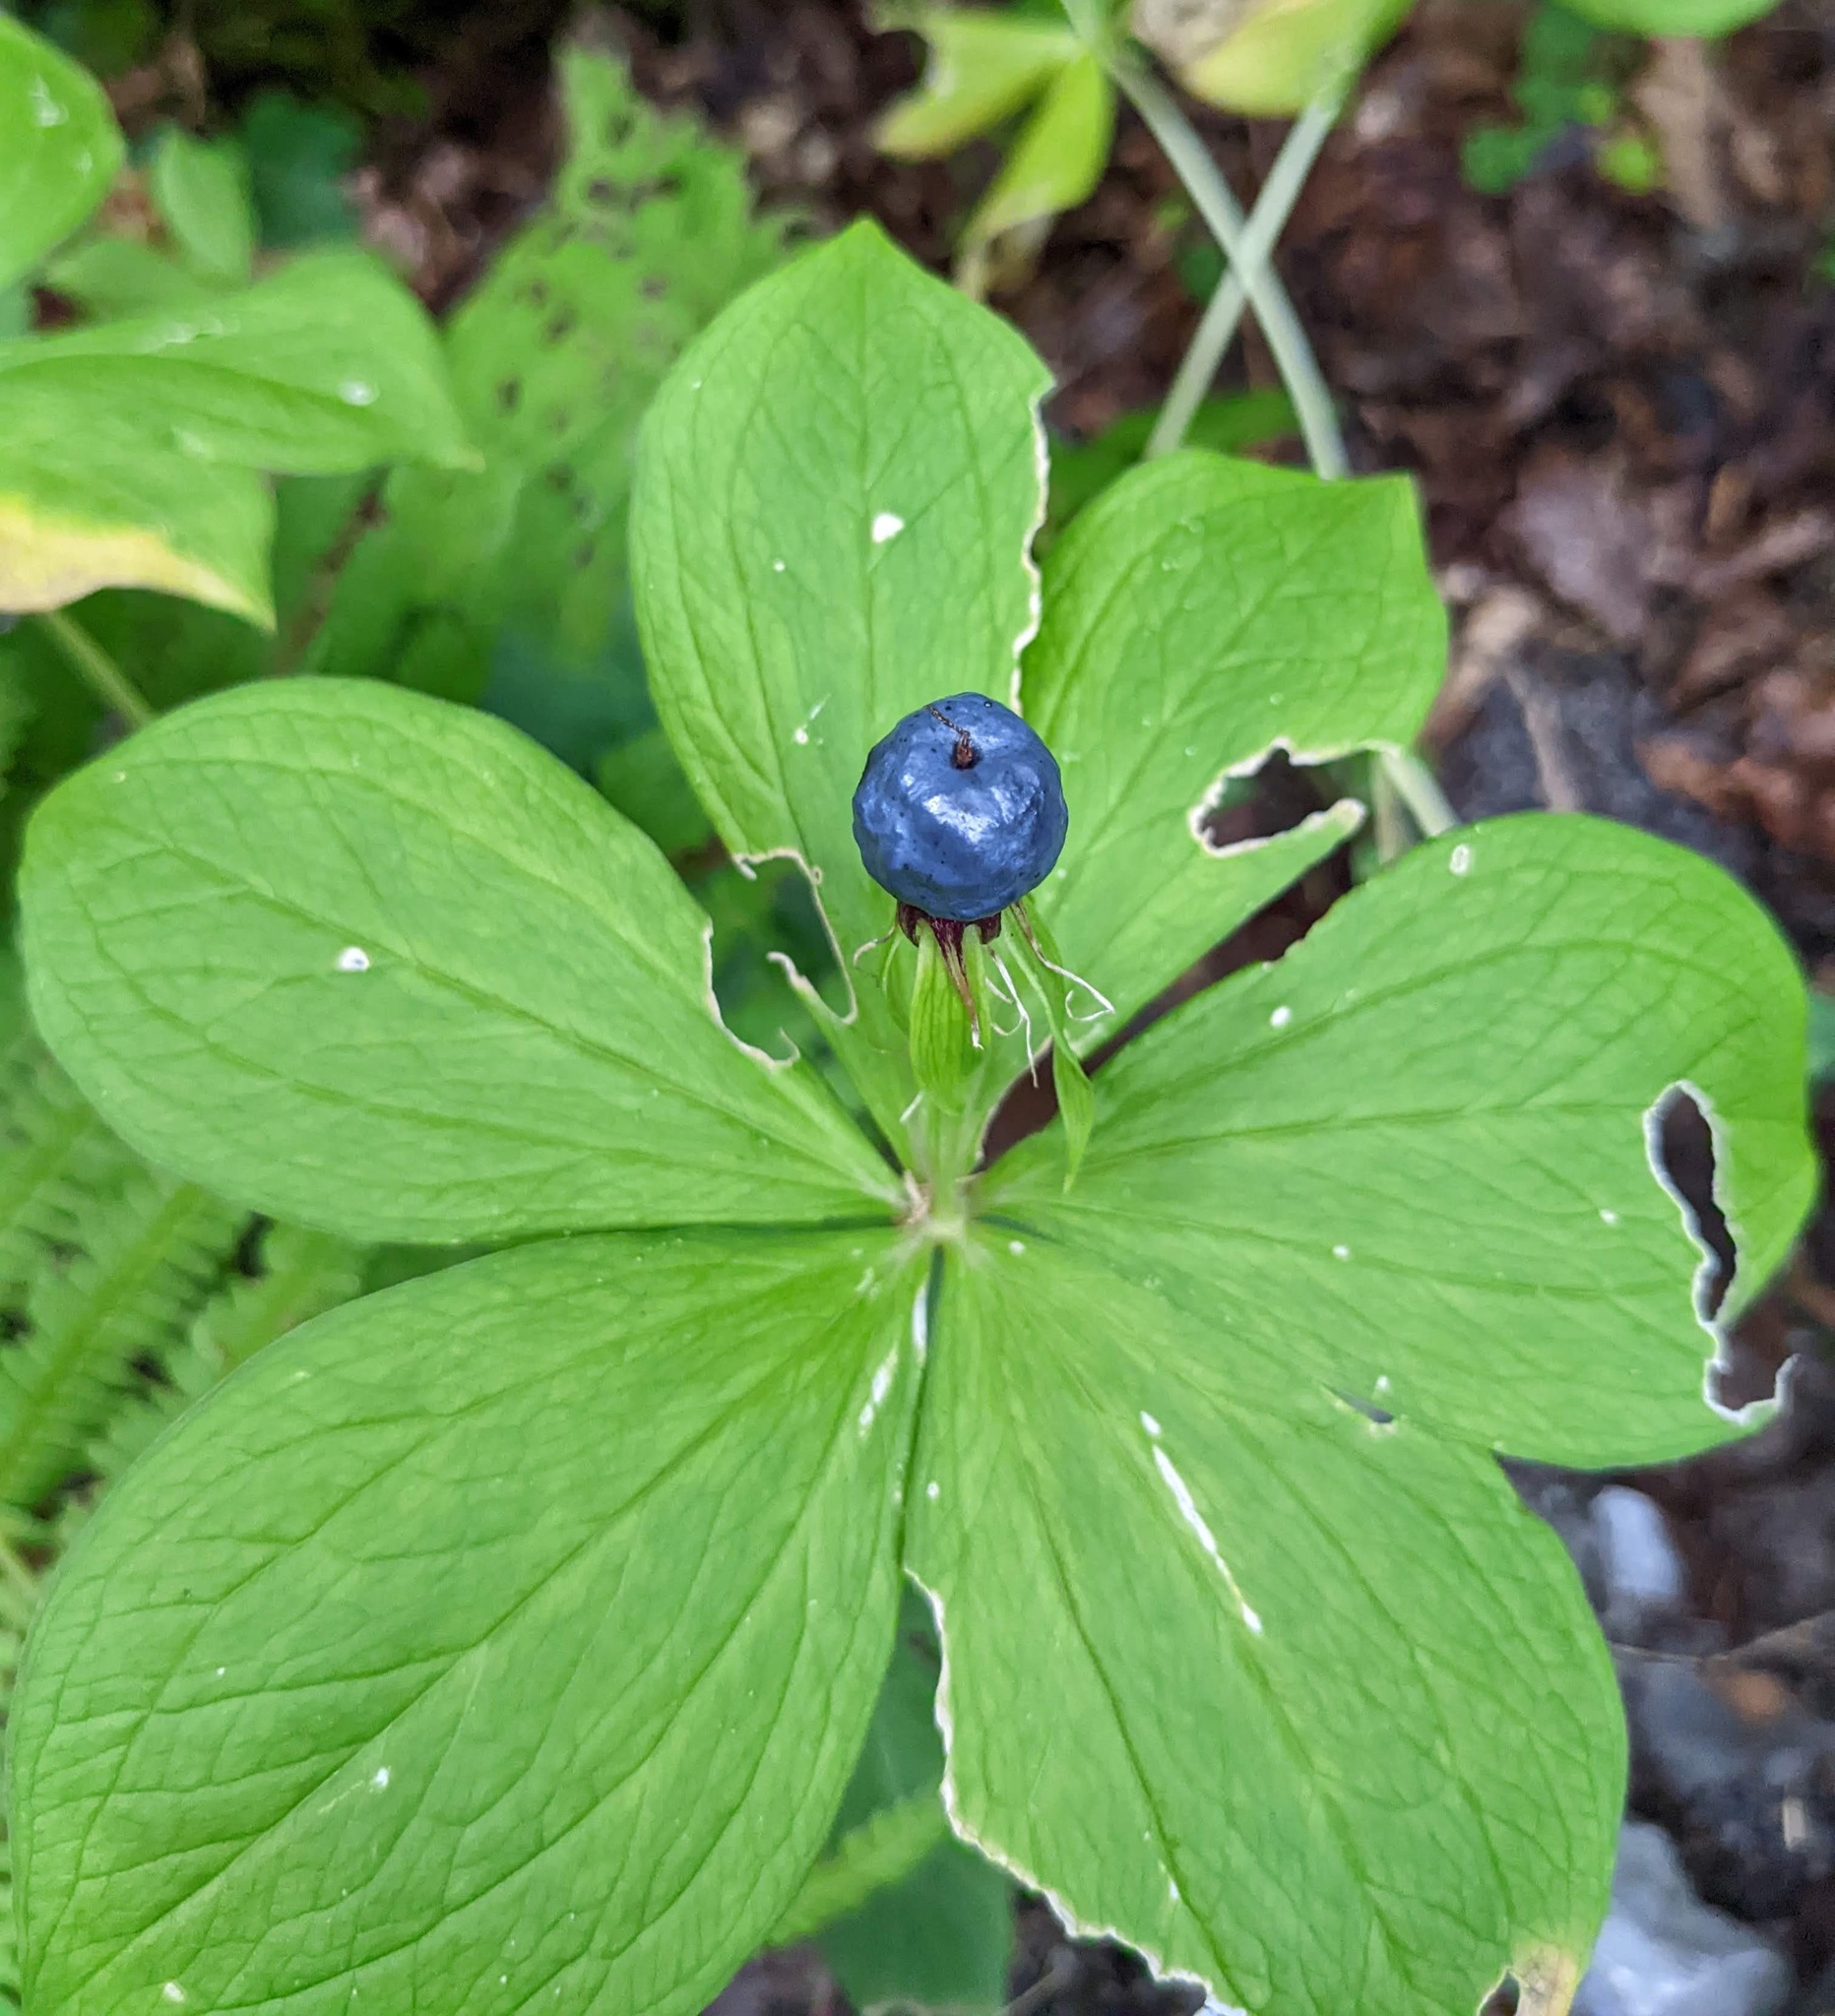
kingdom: Plantae
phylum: Tracheophyta
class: Liliopsida
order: Liliales
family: Melanthiaceae
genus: Paris
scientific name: Paris quadrifolia
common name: Herb-paris
